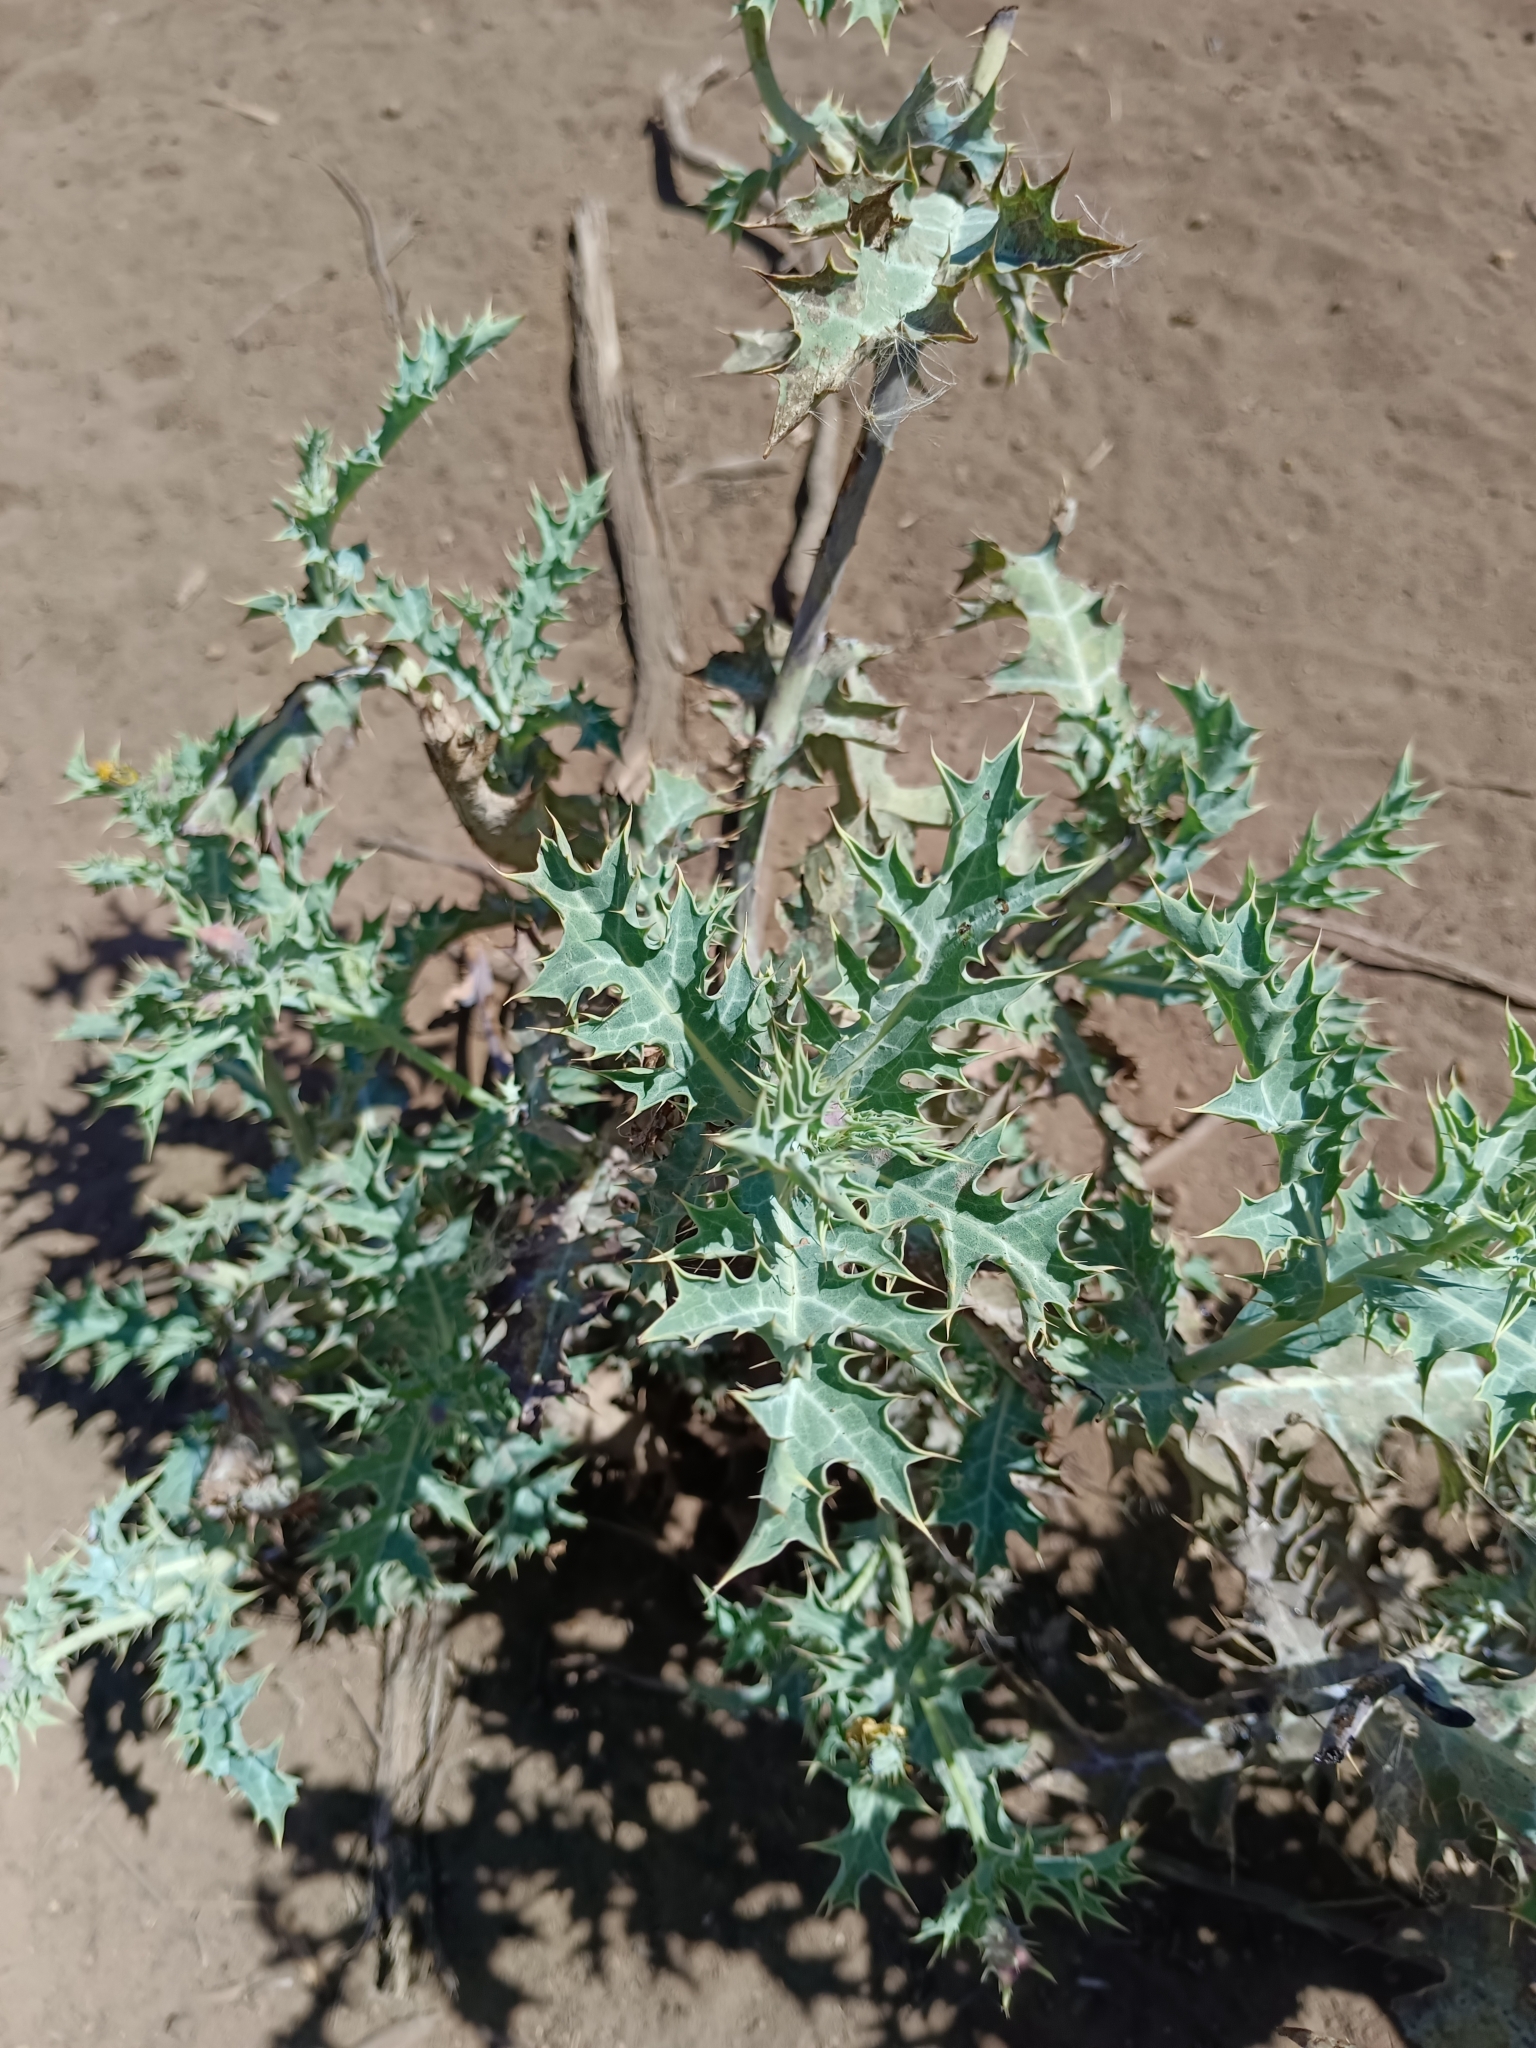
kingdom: Plantae
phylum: Tracheophyta
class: Magnoliopsida
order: Ranunculales
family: Papaveraceae
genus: Argemone
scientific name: Argemone subfusiformis
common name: American-poppy
